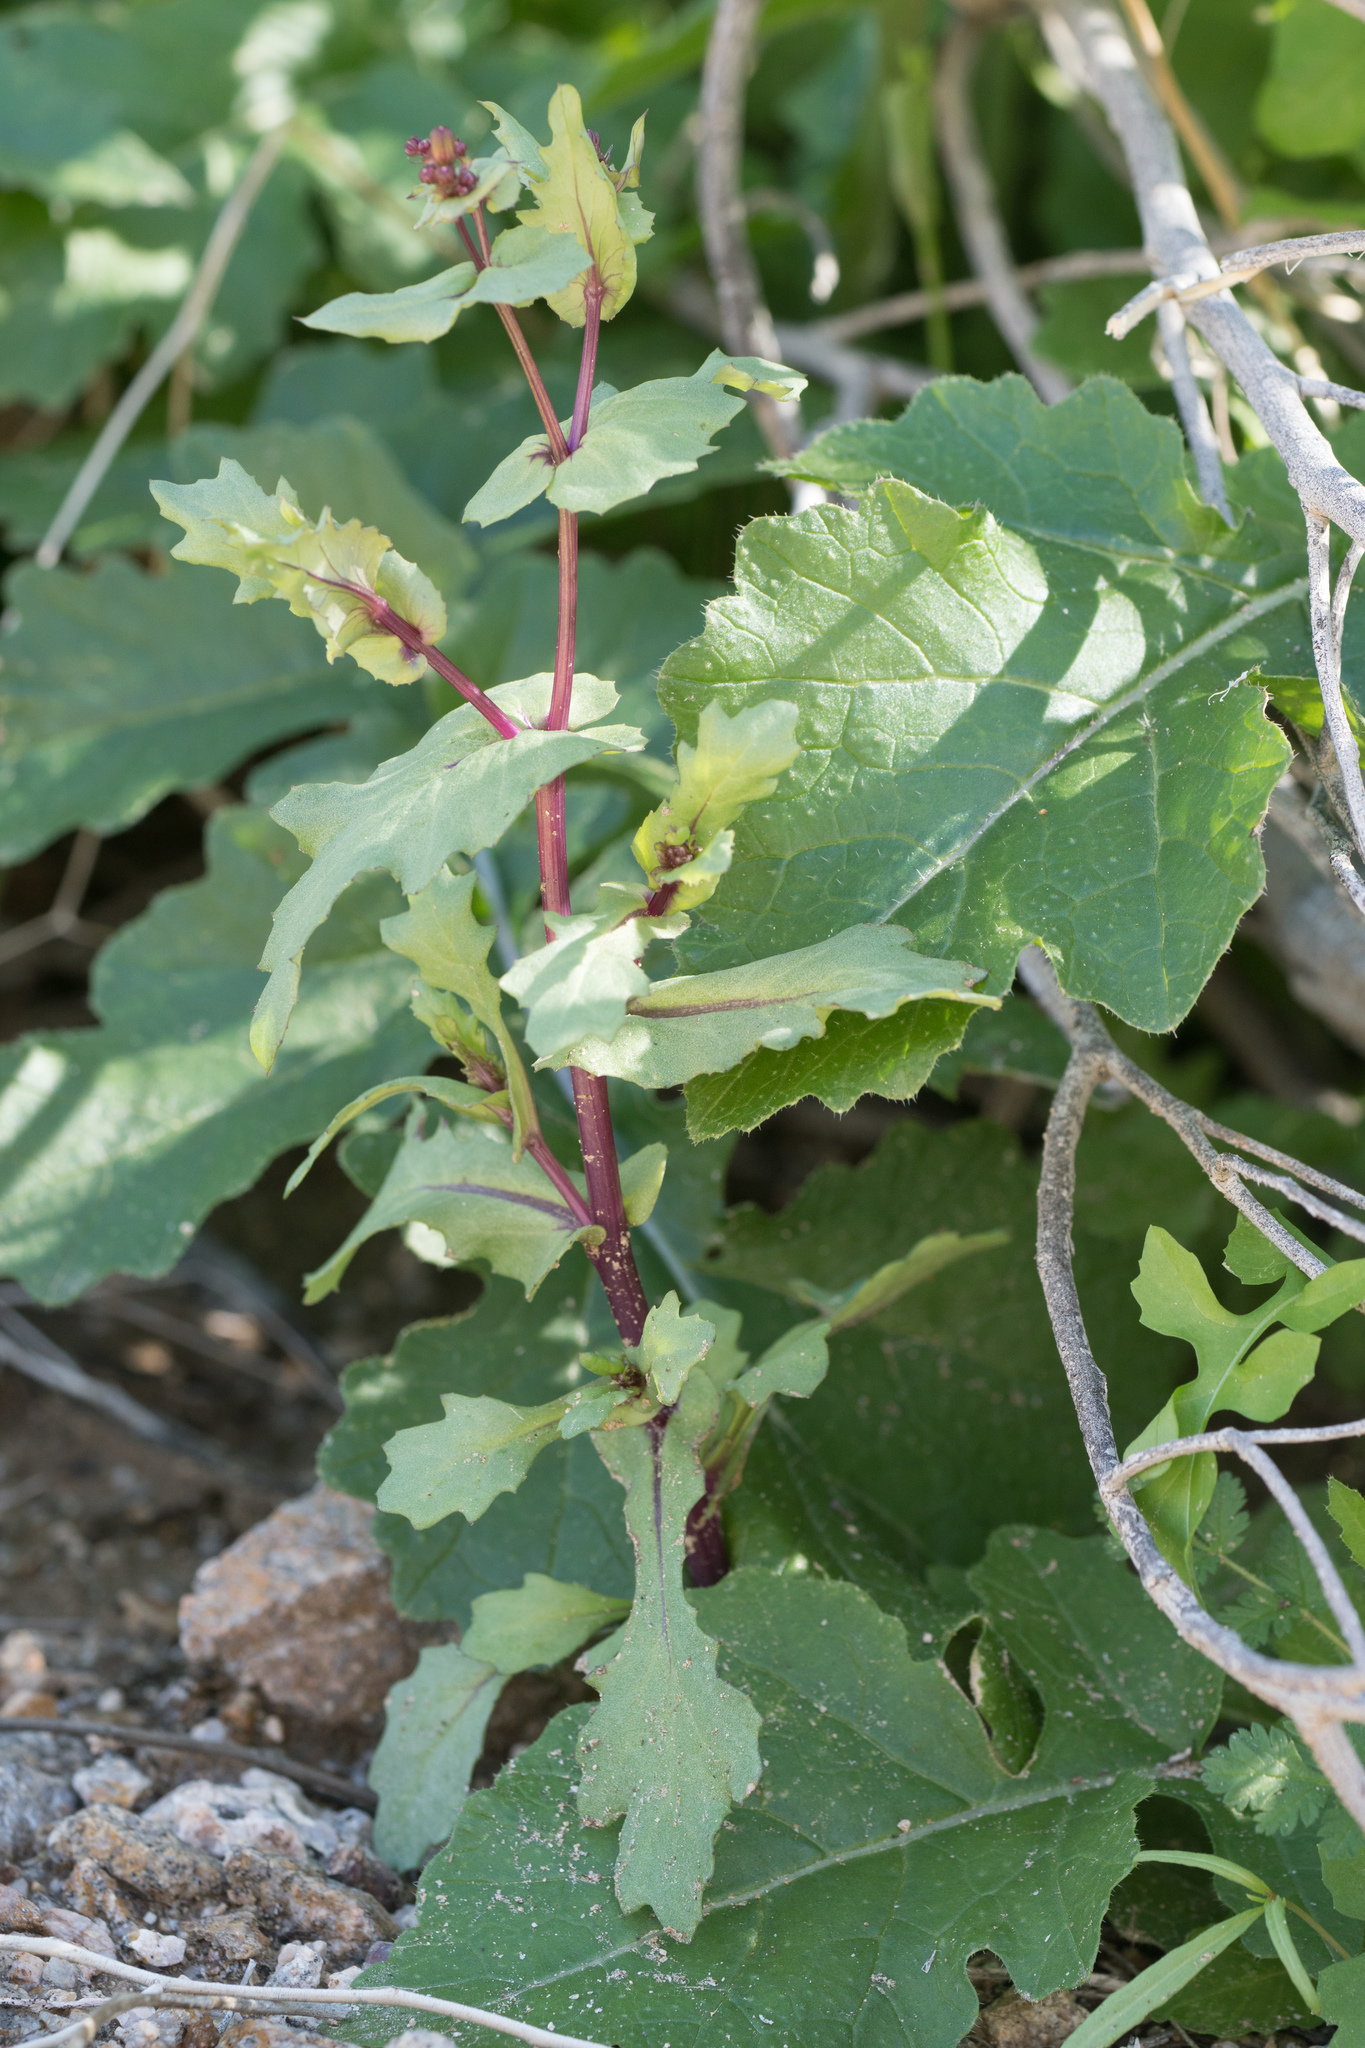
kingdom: Plantae
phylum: Tracheophyta
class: Magnoliopsida
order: Asterales
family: Asteraceae
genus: Senecio
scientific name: Senecio mohavensis
